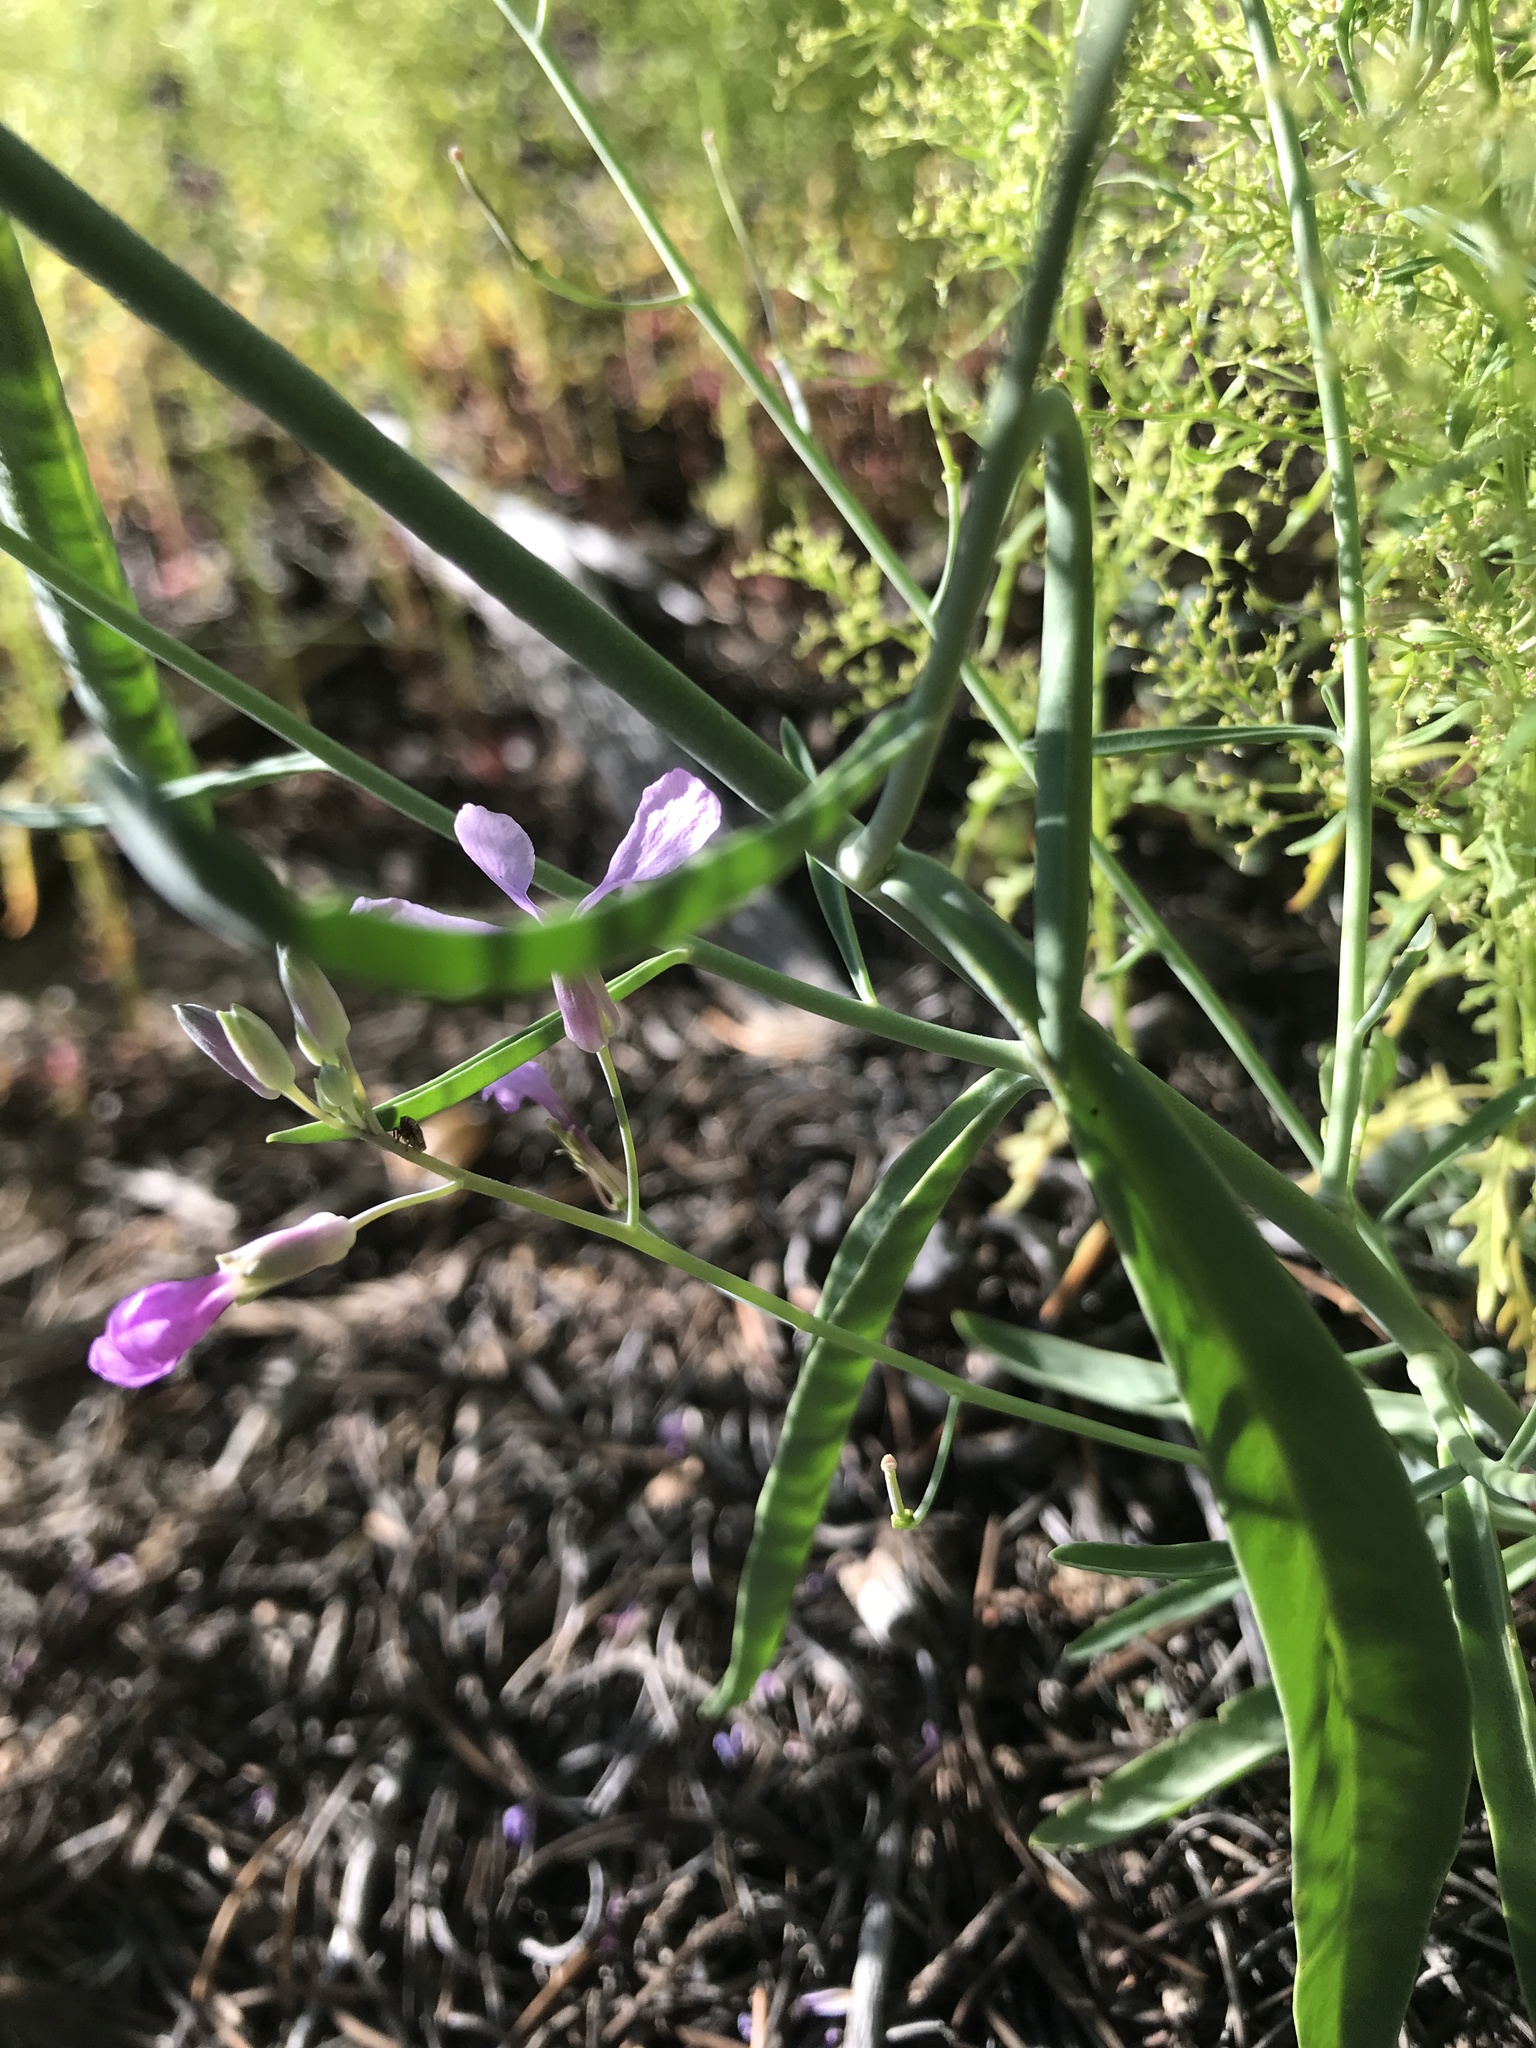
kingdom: Plantae
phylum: Tracheophyta
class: Magnoliopsida
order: Brassicales
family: Brassicaceae
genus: Hesperidanthus
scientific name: Hesperidanthus linearifolius
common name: Slim-leaf plains mustard
